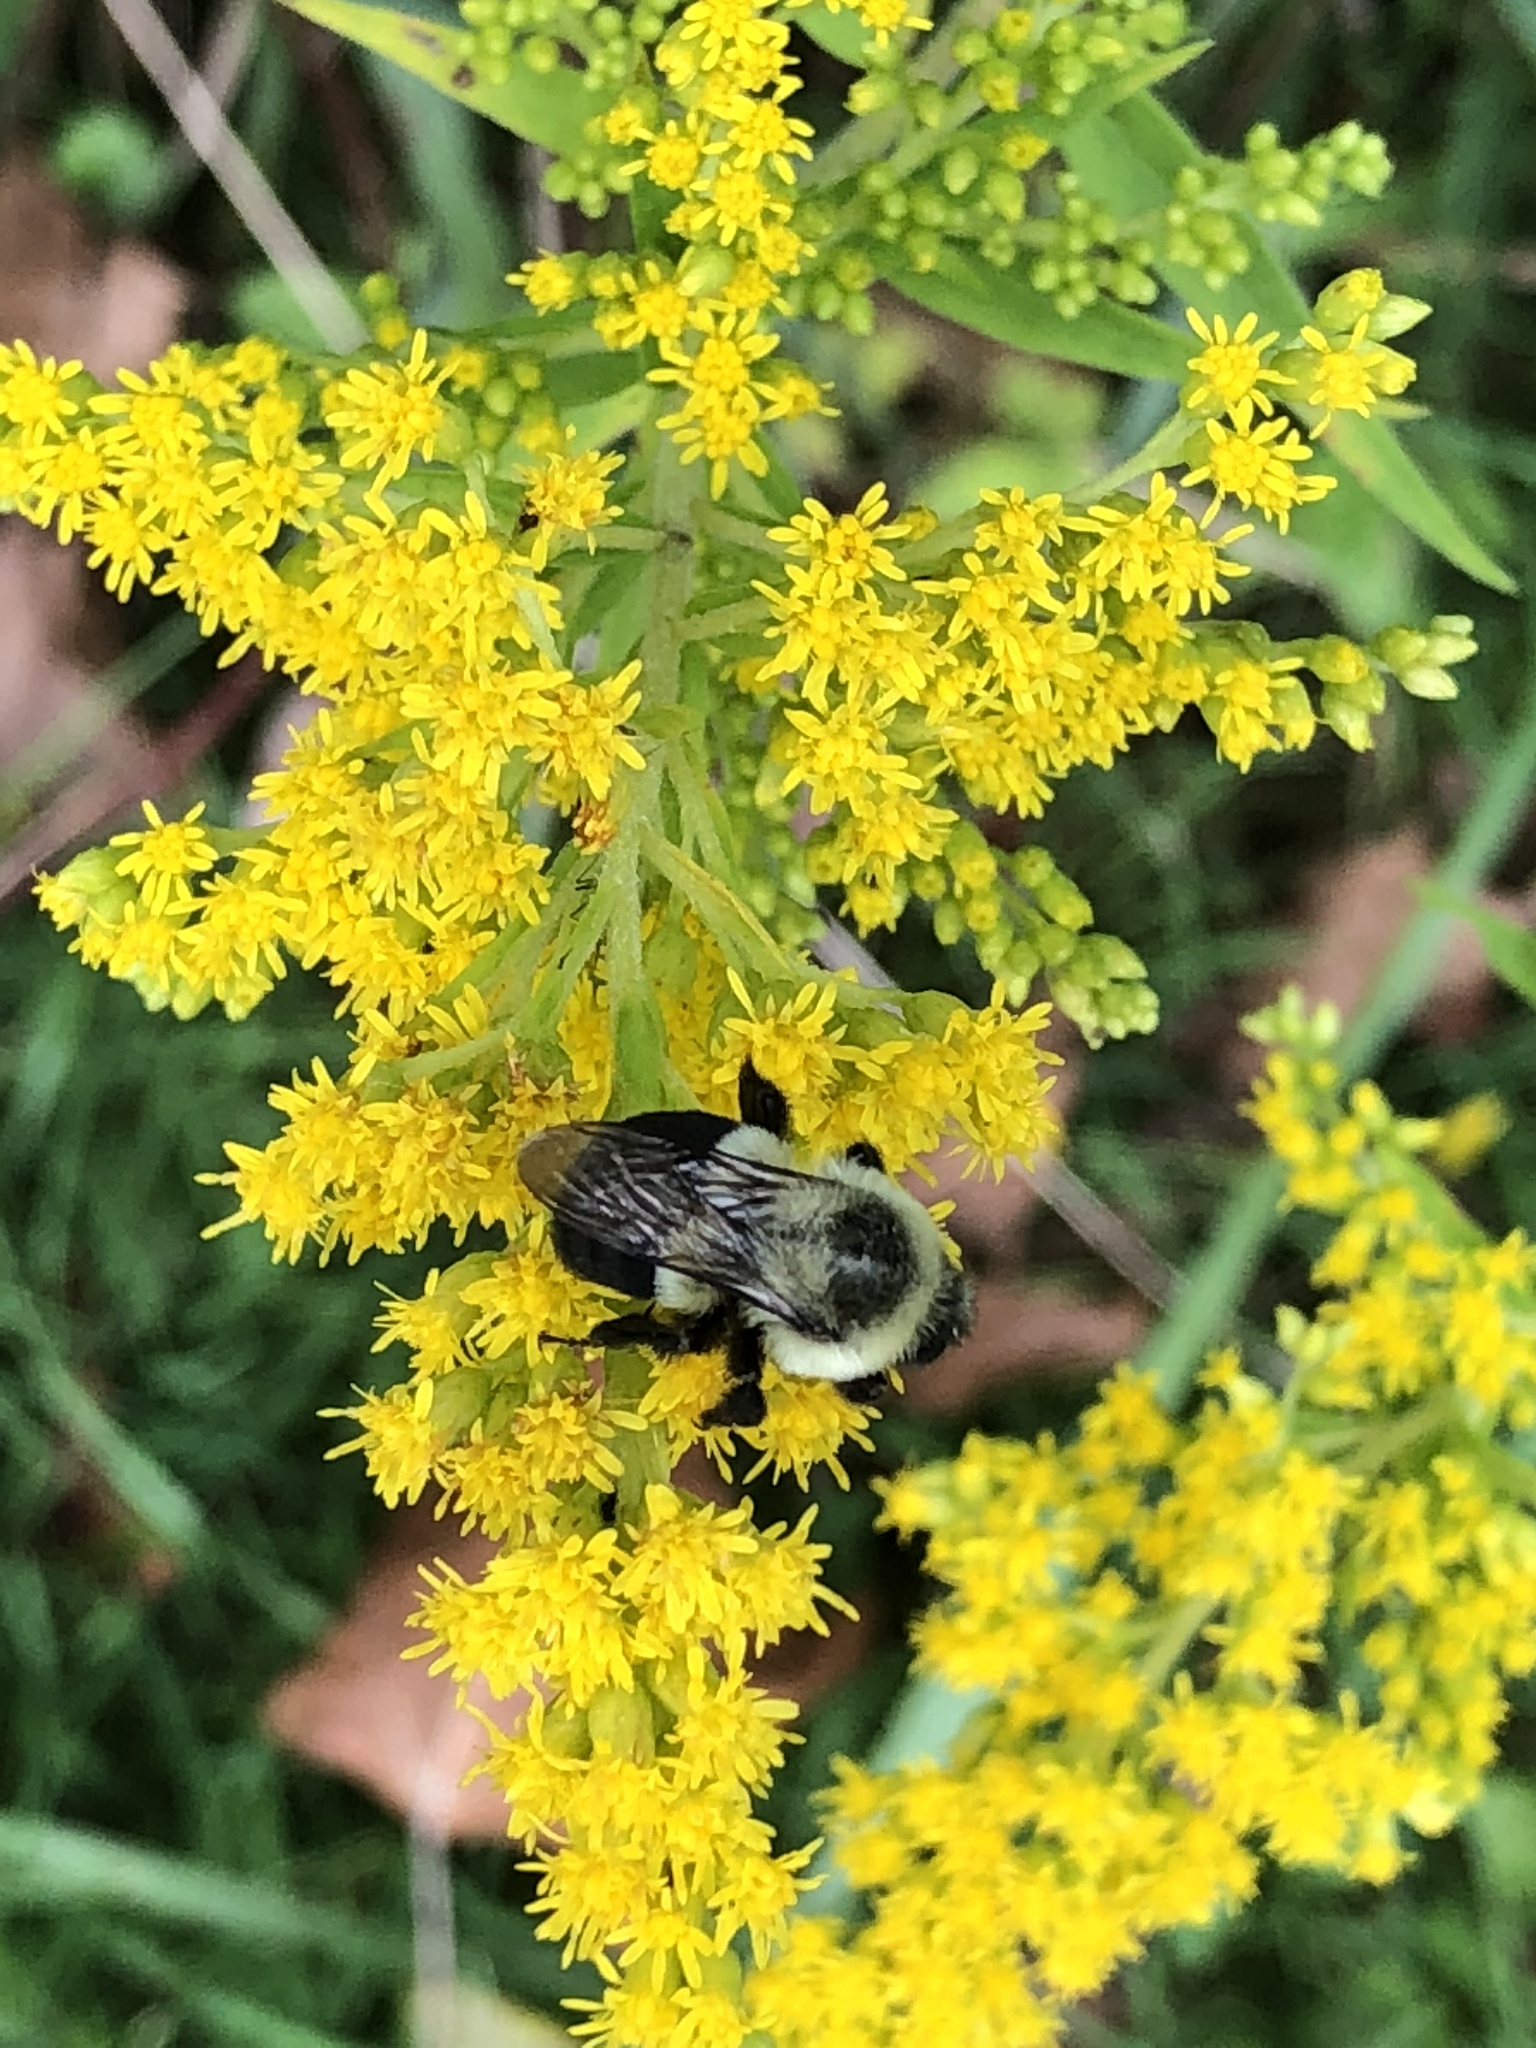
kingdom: Animalia
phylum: Arthropoda
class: Insecta
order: Hymenoptera
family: Apidae
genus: Bombus
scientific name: Bombus impatiens
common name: Common eastern bumble bee
